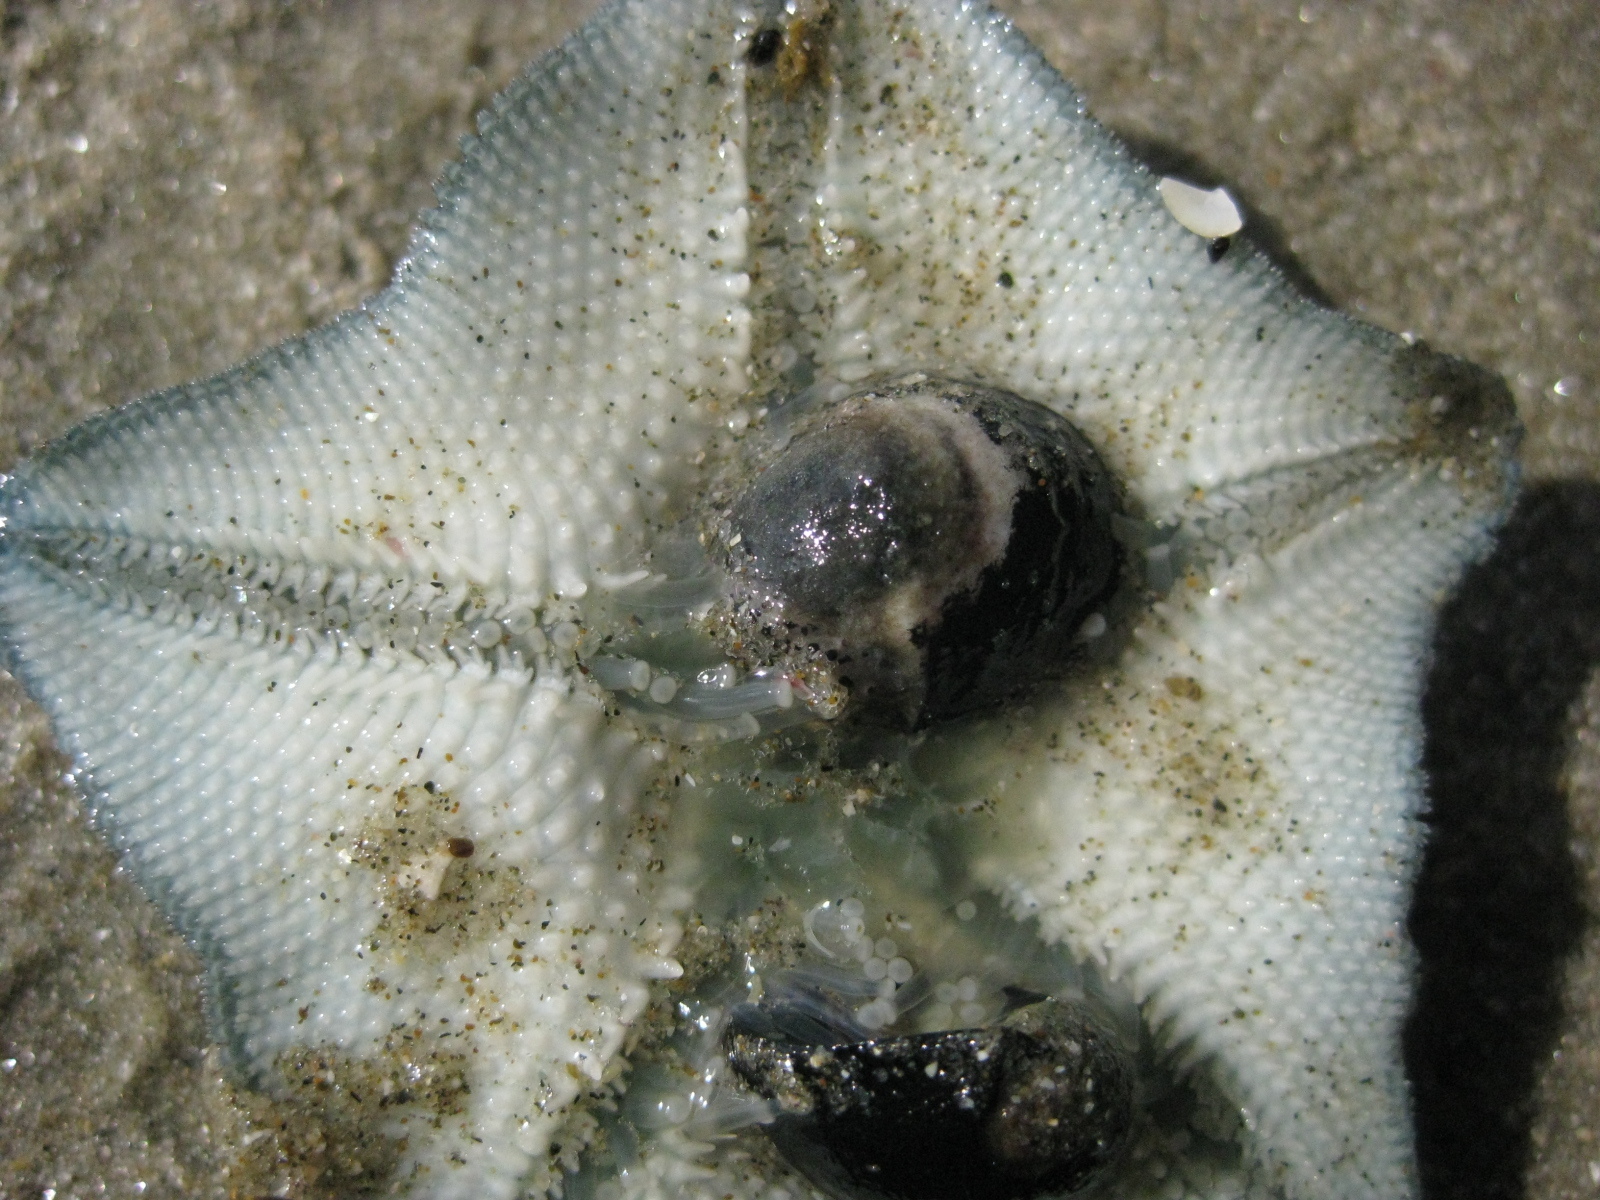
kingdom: Animalia
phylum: Mollusca
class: Gastropoda
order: Cycloneritida
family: Neritidae
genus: Nerita
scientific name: Nerita melanotragus
